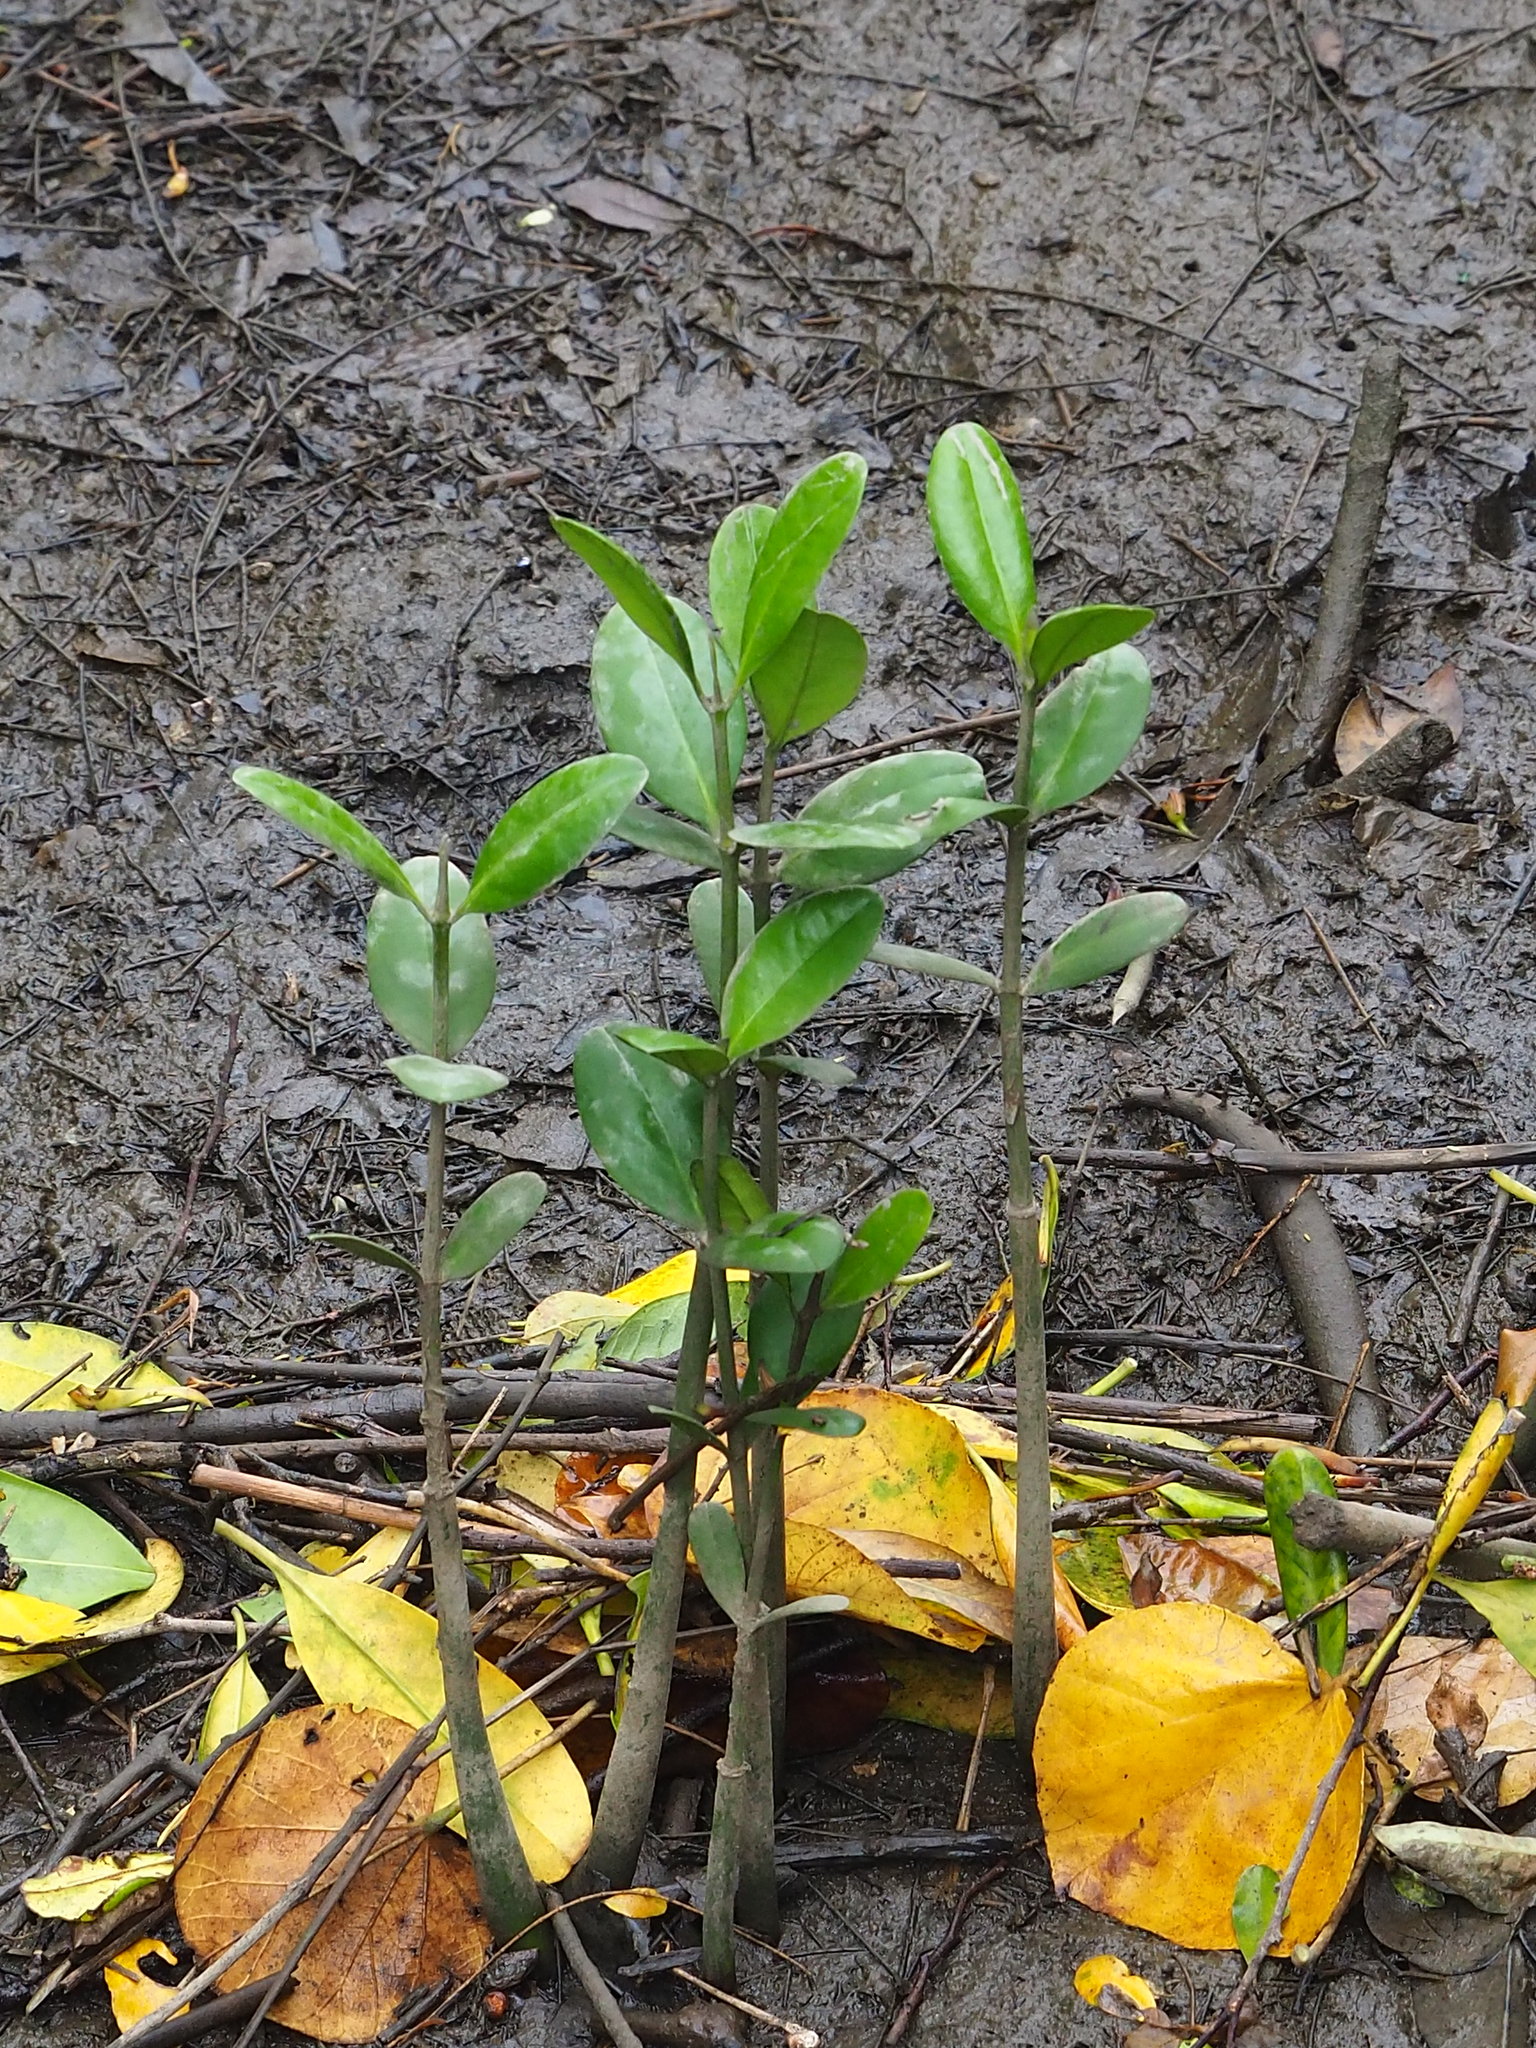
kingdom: Plantae
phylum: Tracheophyta
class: Magnoliopsida
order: Malpighiales
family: Rhizophoraceae
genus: Kandelia
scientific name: Kandelia obovata
